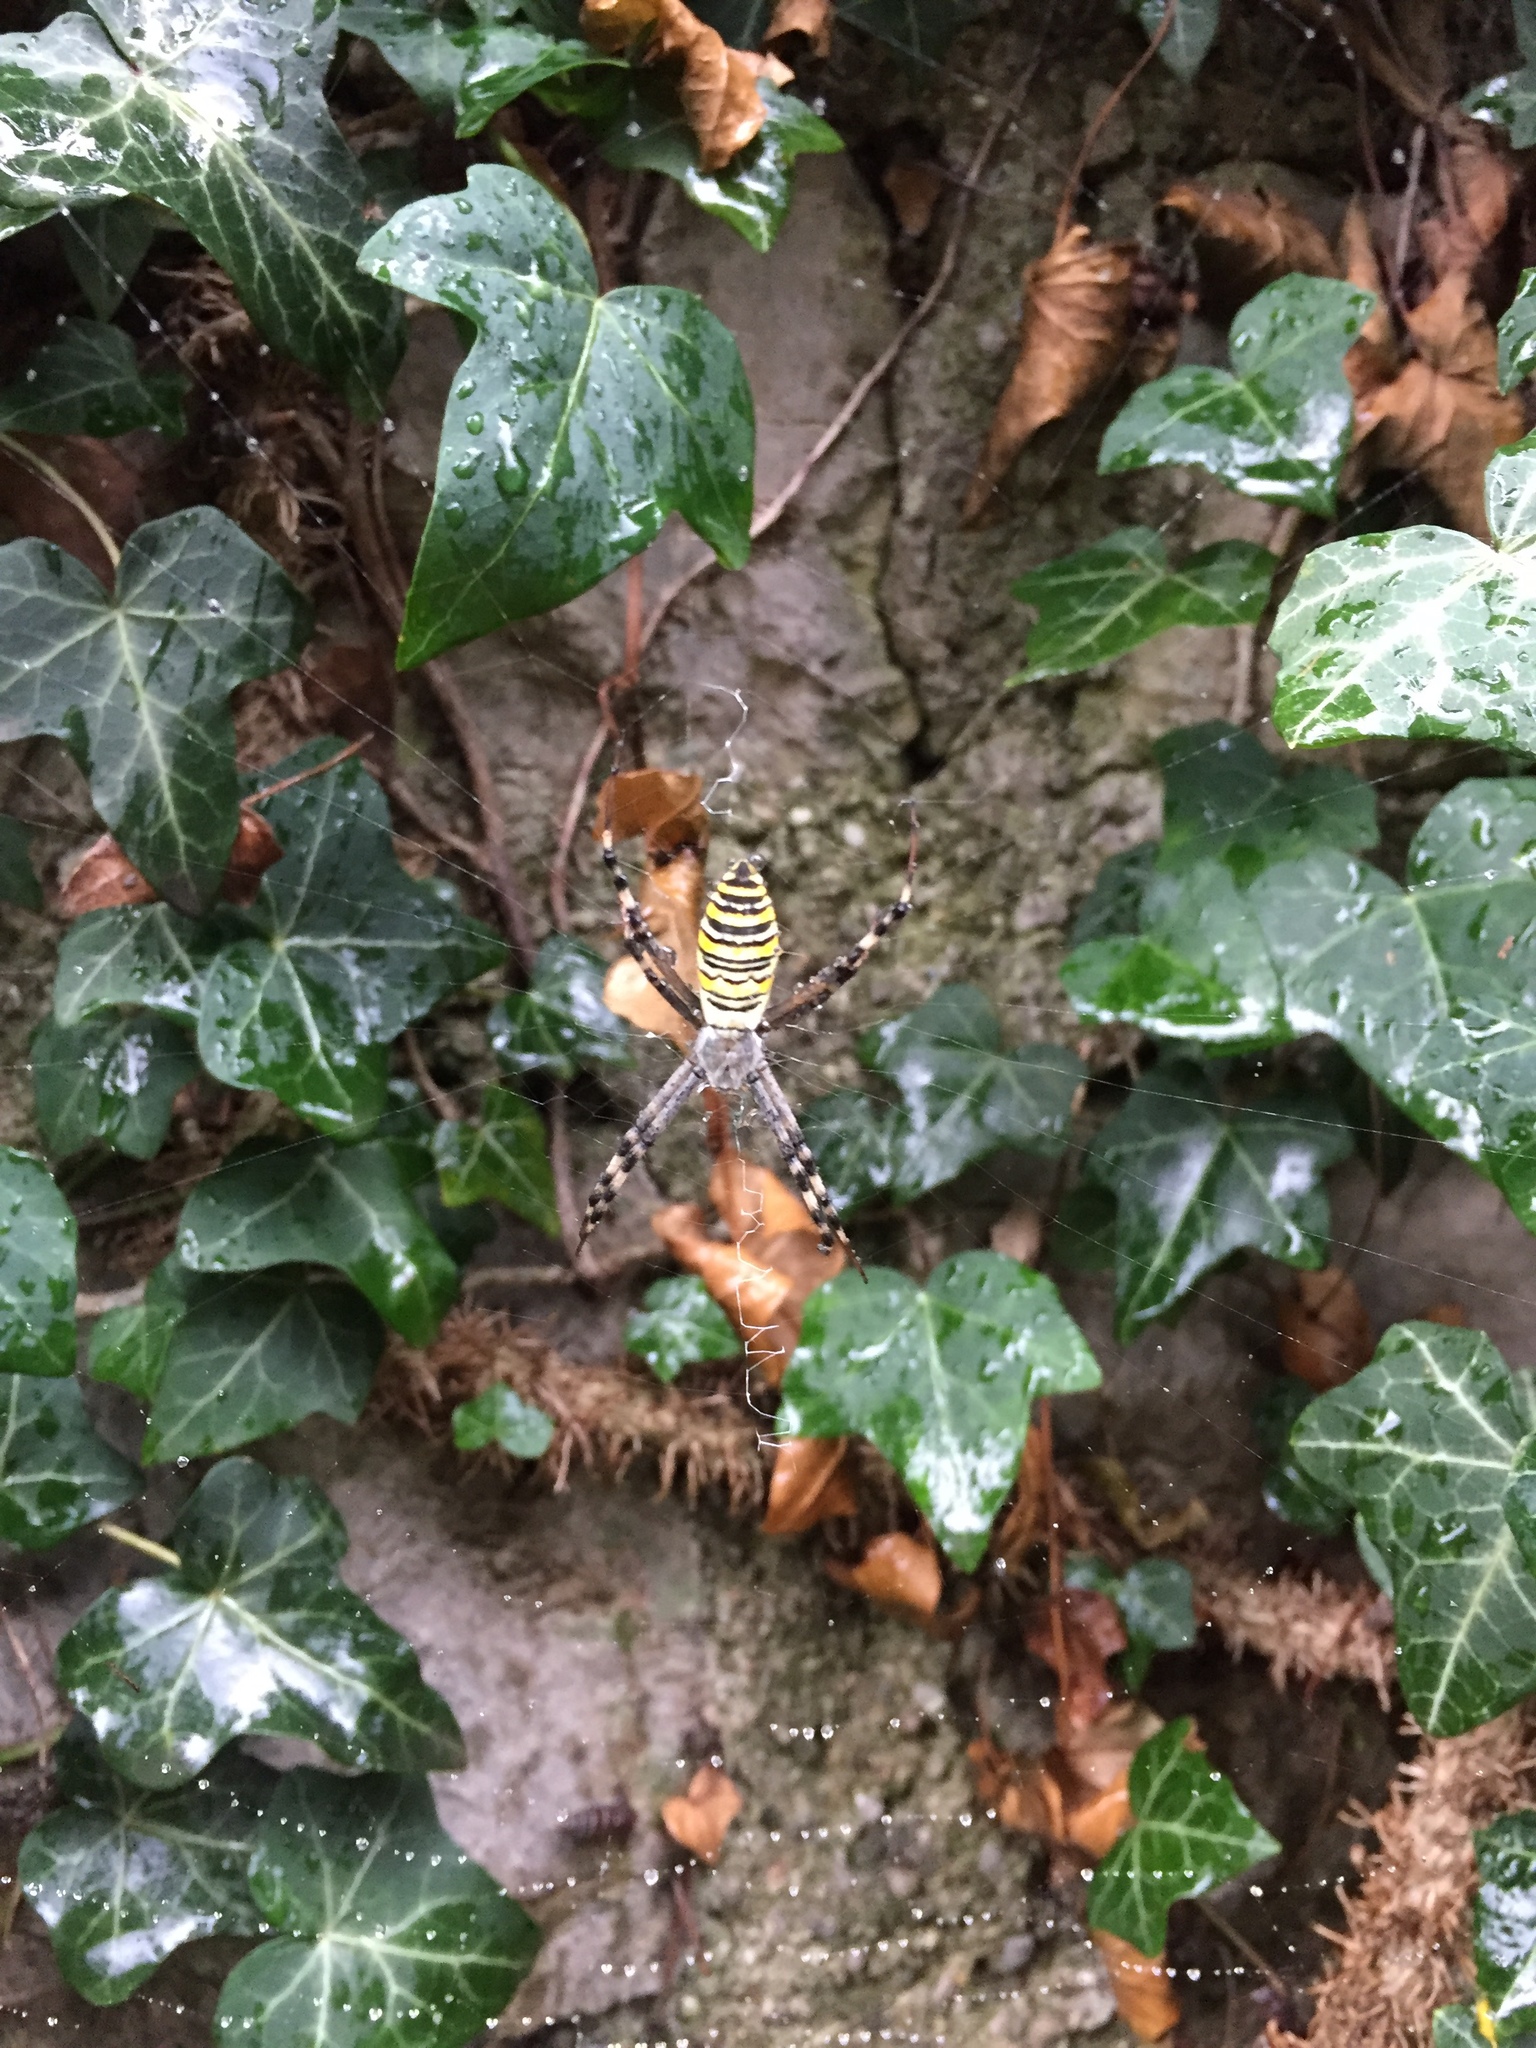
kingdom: Animalia
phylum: Arthropoda
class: Arachnida
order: Araneae
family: Araneidae
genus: Argiope
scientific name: Argiope bruennichi
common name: Wasp spider
